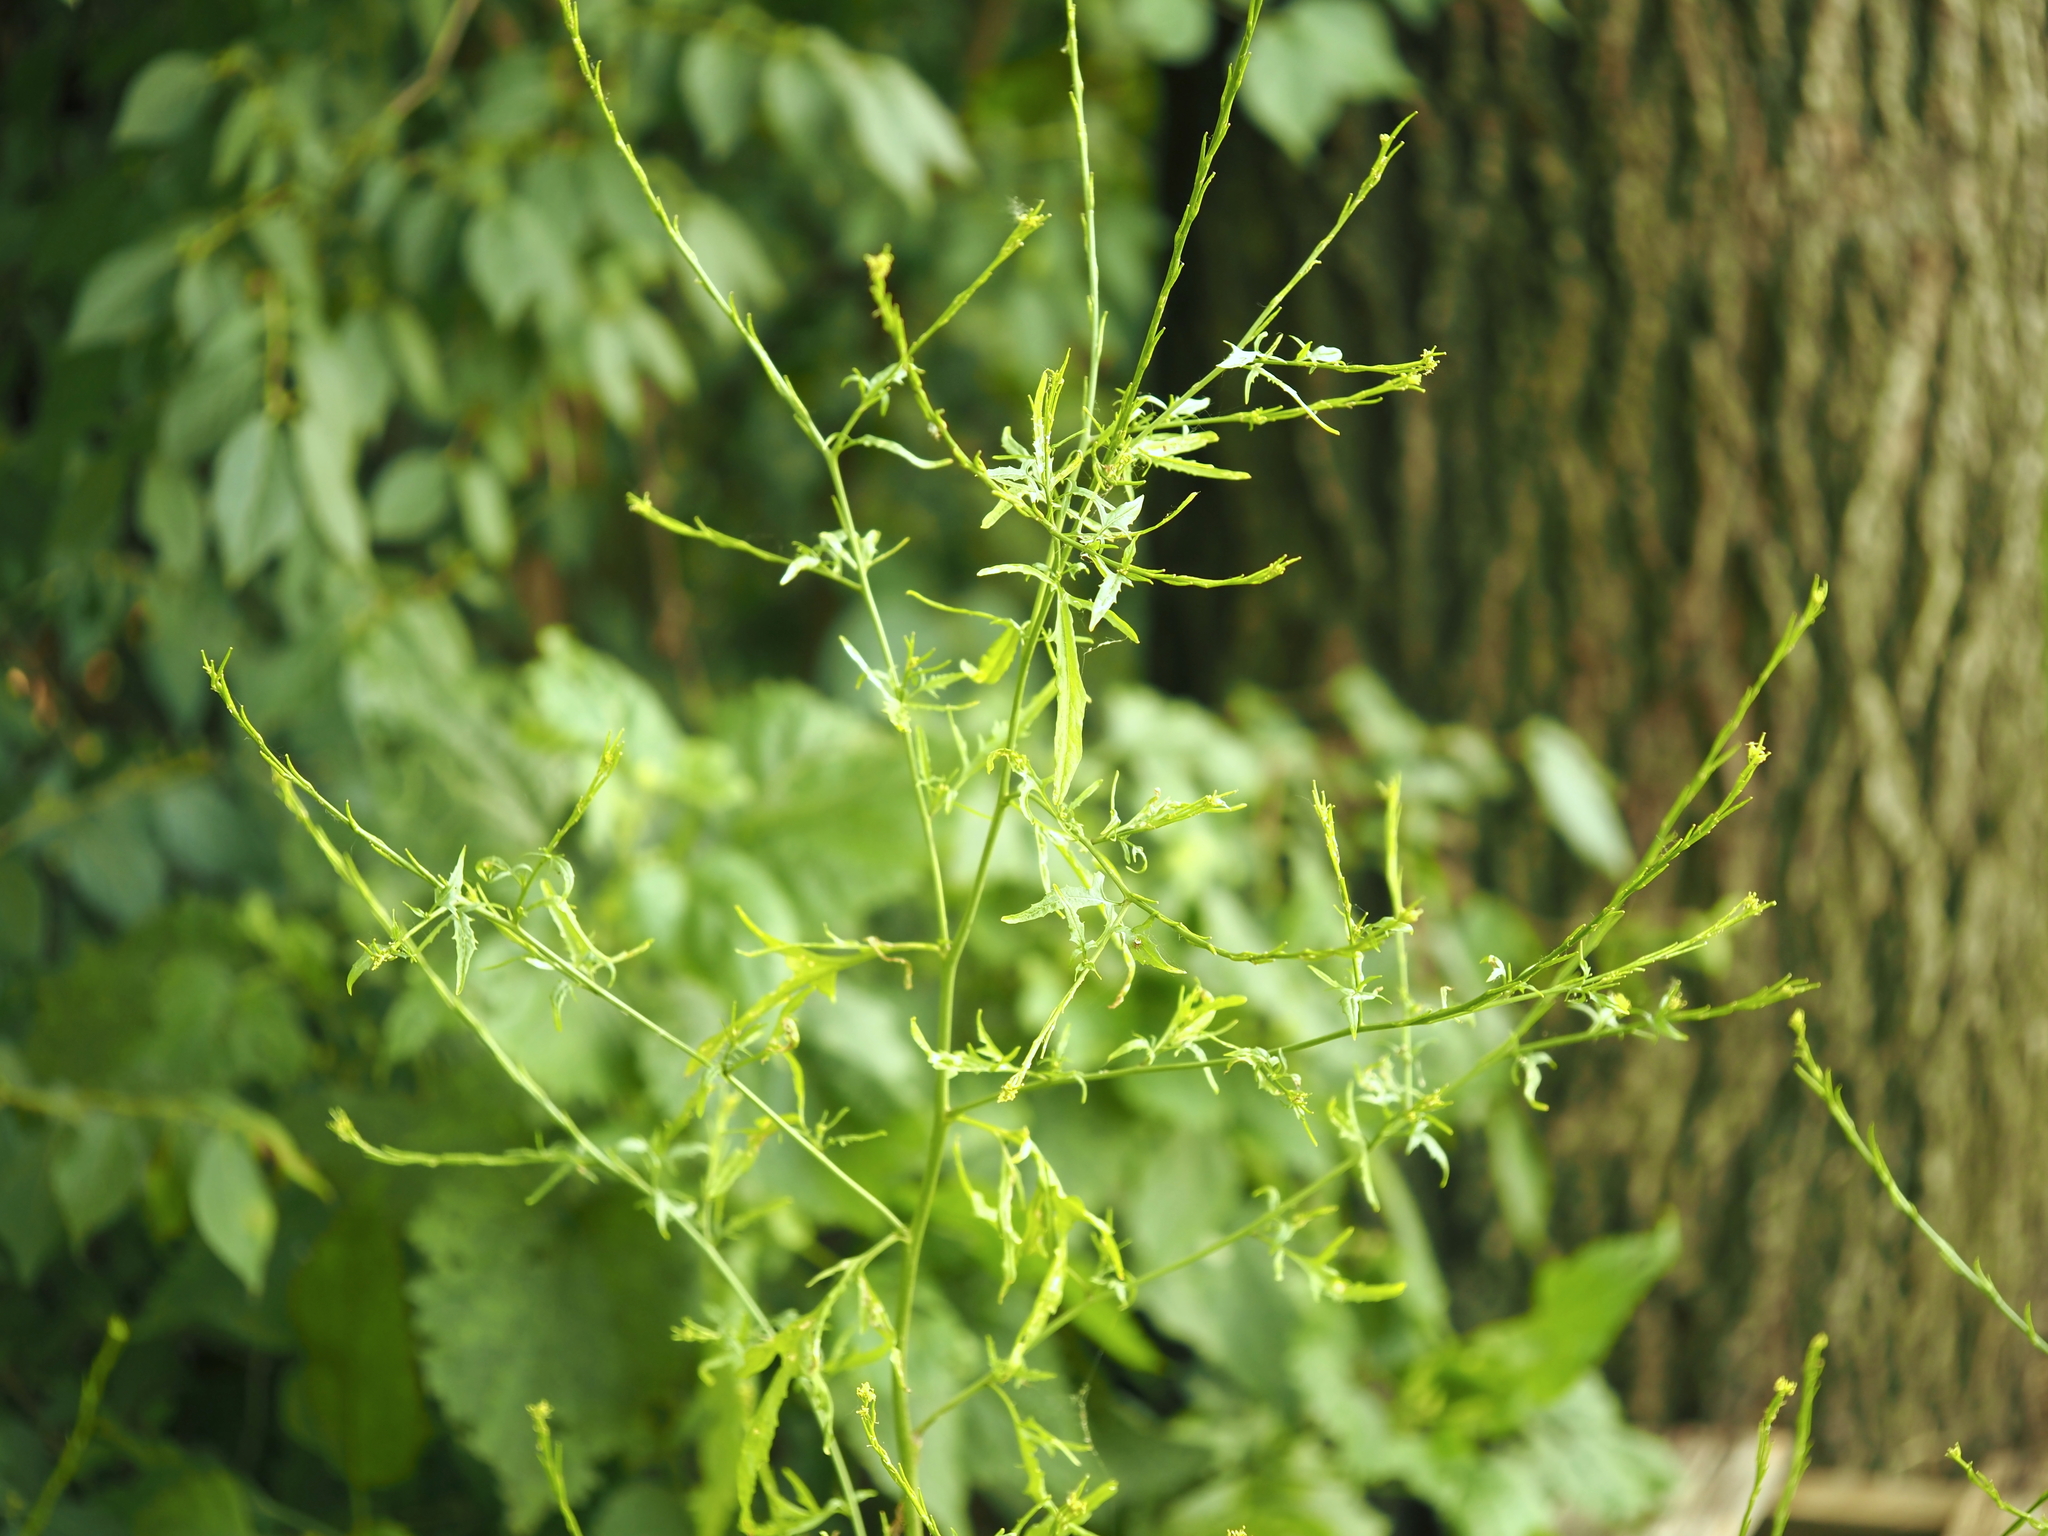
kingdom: Plantae
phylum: Tracheophyta
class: Magnoliopsida
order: Brassicales
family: Brassicaceae
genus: Sisymbrium
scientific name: Sisymbrium officinale
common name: Hedge mustard
